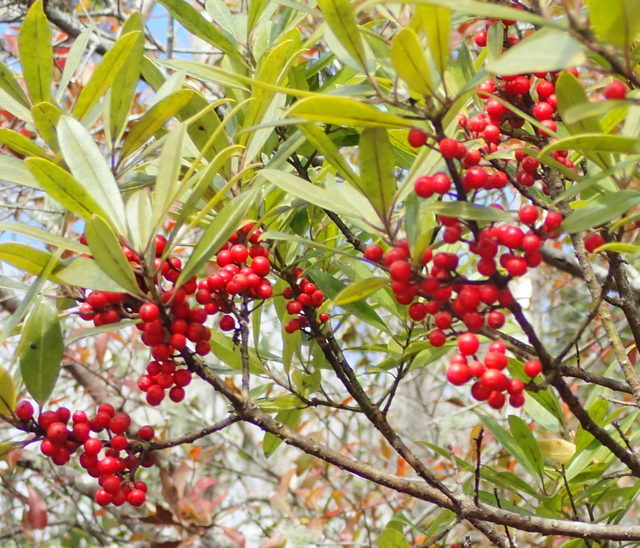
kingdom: Plantae
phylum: Tracheophyta
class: Magnoliopsida
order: Aquifoliales
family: Aquifoliaceae
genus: Ilex
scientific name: Ilex cassine
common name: Dahoon
